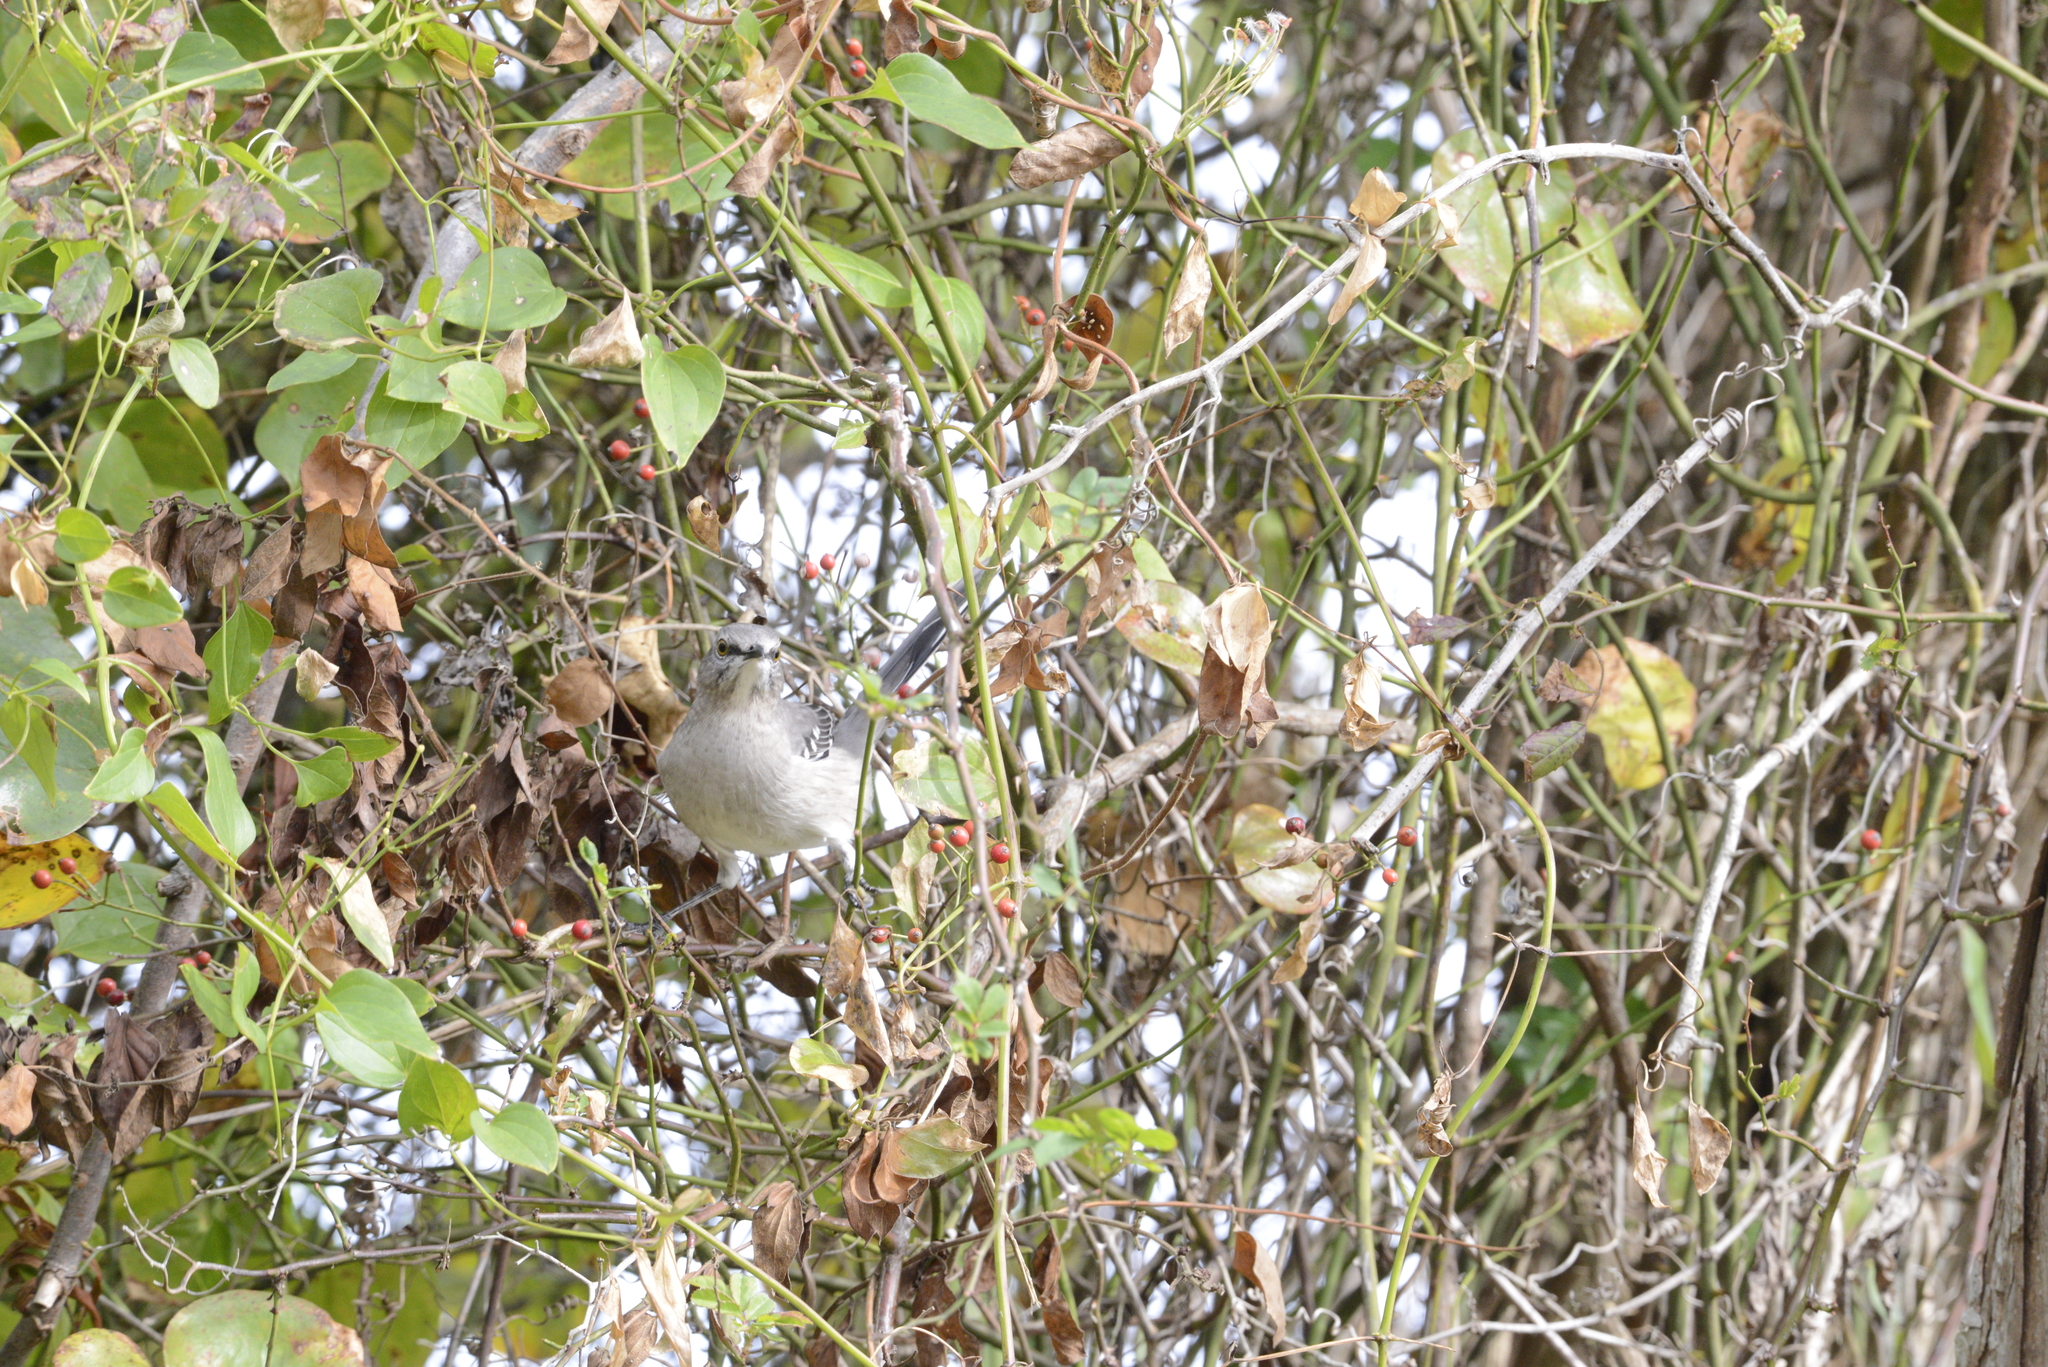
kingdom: Animalia
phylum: Chordata
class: Aves
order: Passeriformes
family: Mimidae
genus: Mimus
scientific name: Mimus polyglottos
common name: Northern mockingbird
